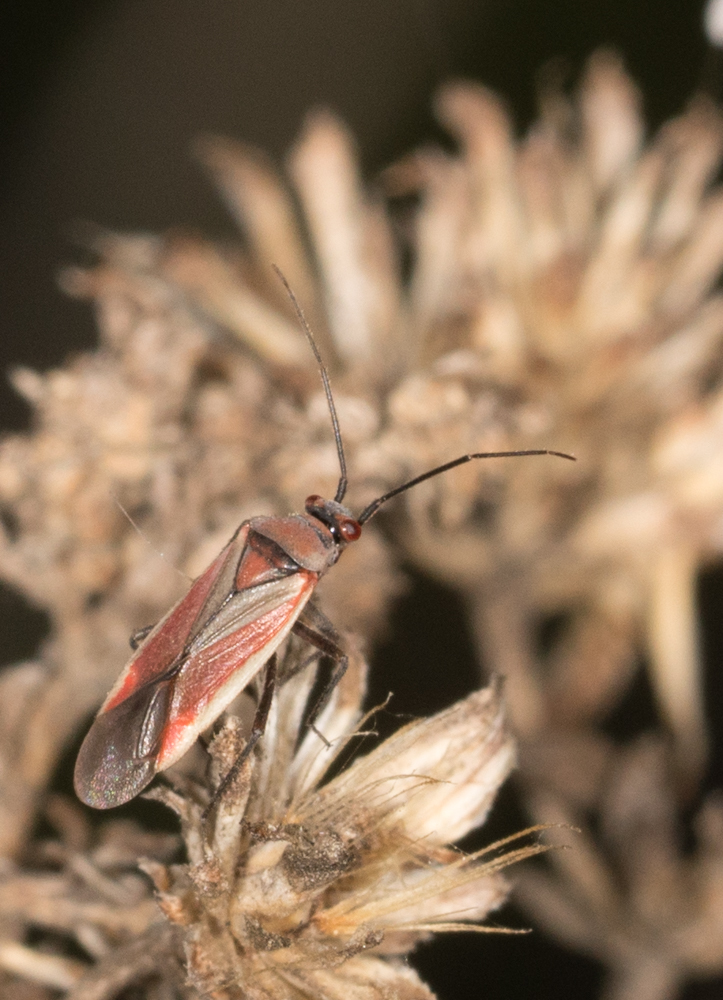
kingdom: Animalia
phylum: Arthropoda
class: Insecta
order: Hemiptera
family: Miridae
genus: Lopidea
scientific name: Lopidea marginata
